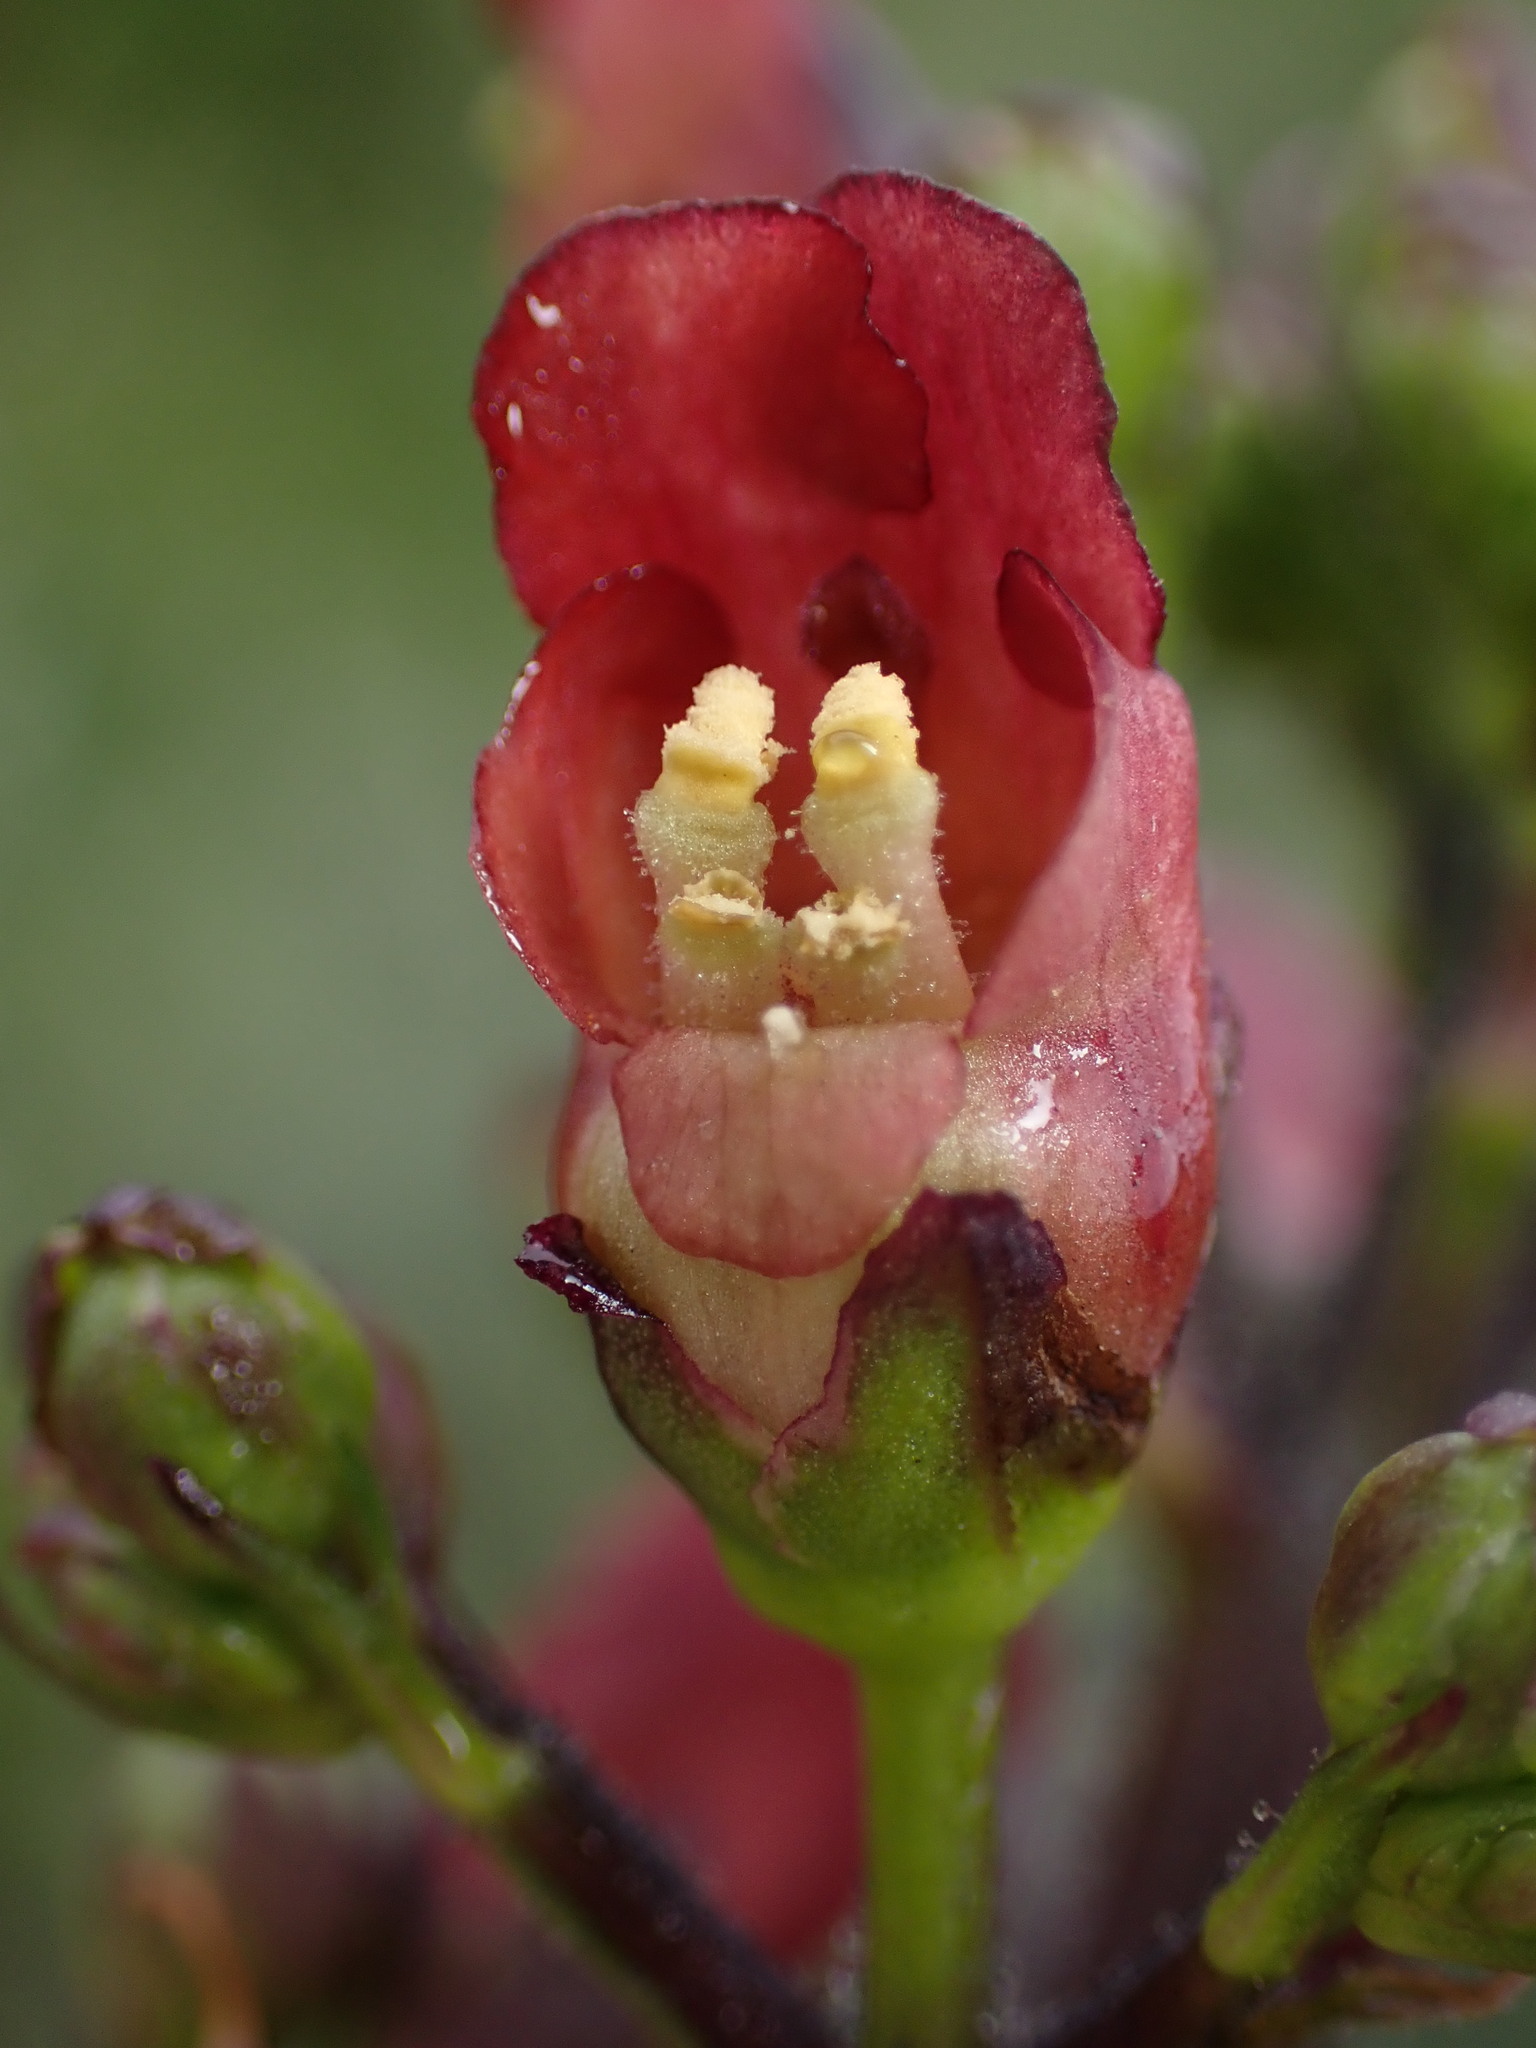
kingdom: Plantae
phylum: Tracheophyta
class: Magnoliopsida
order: Lamiales
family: Scrophulariaceae
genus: Scrophularia
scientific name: Scrophularia californica
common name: California figwort
